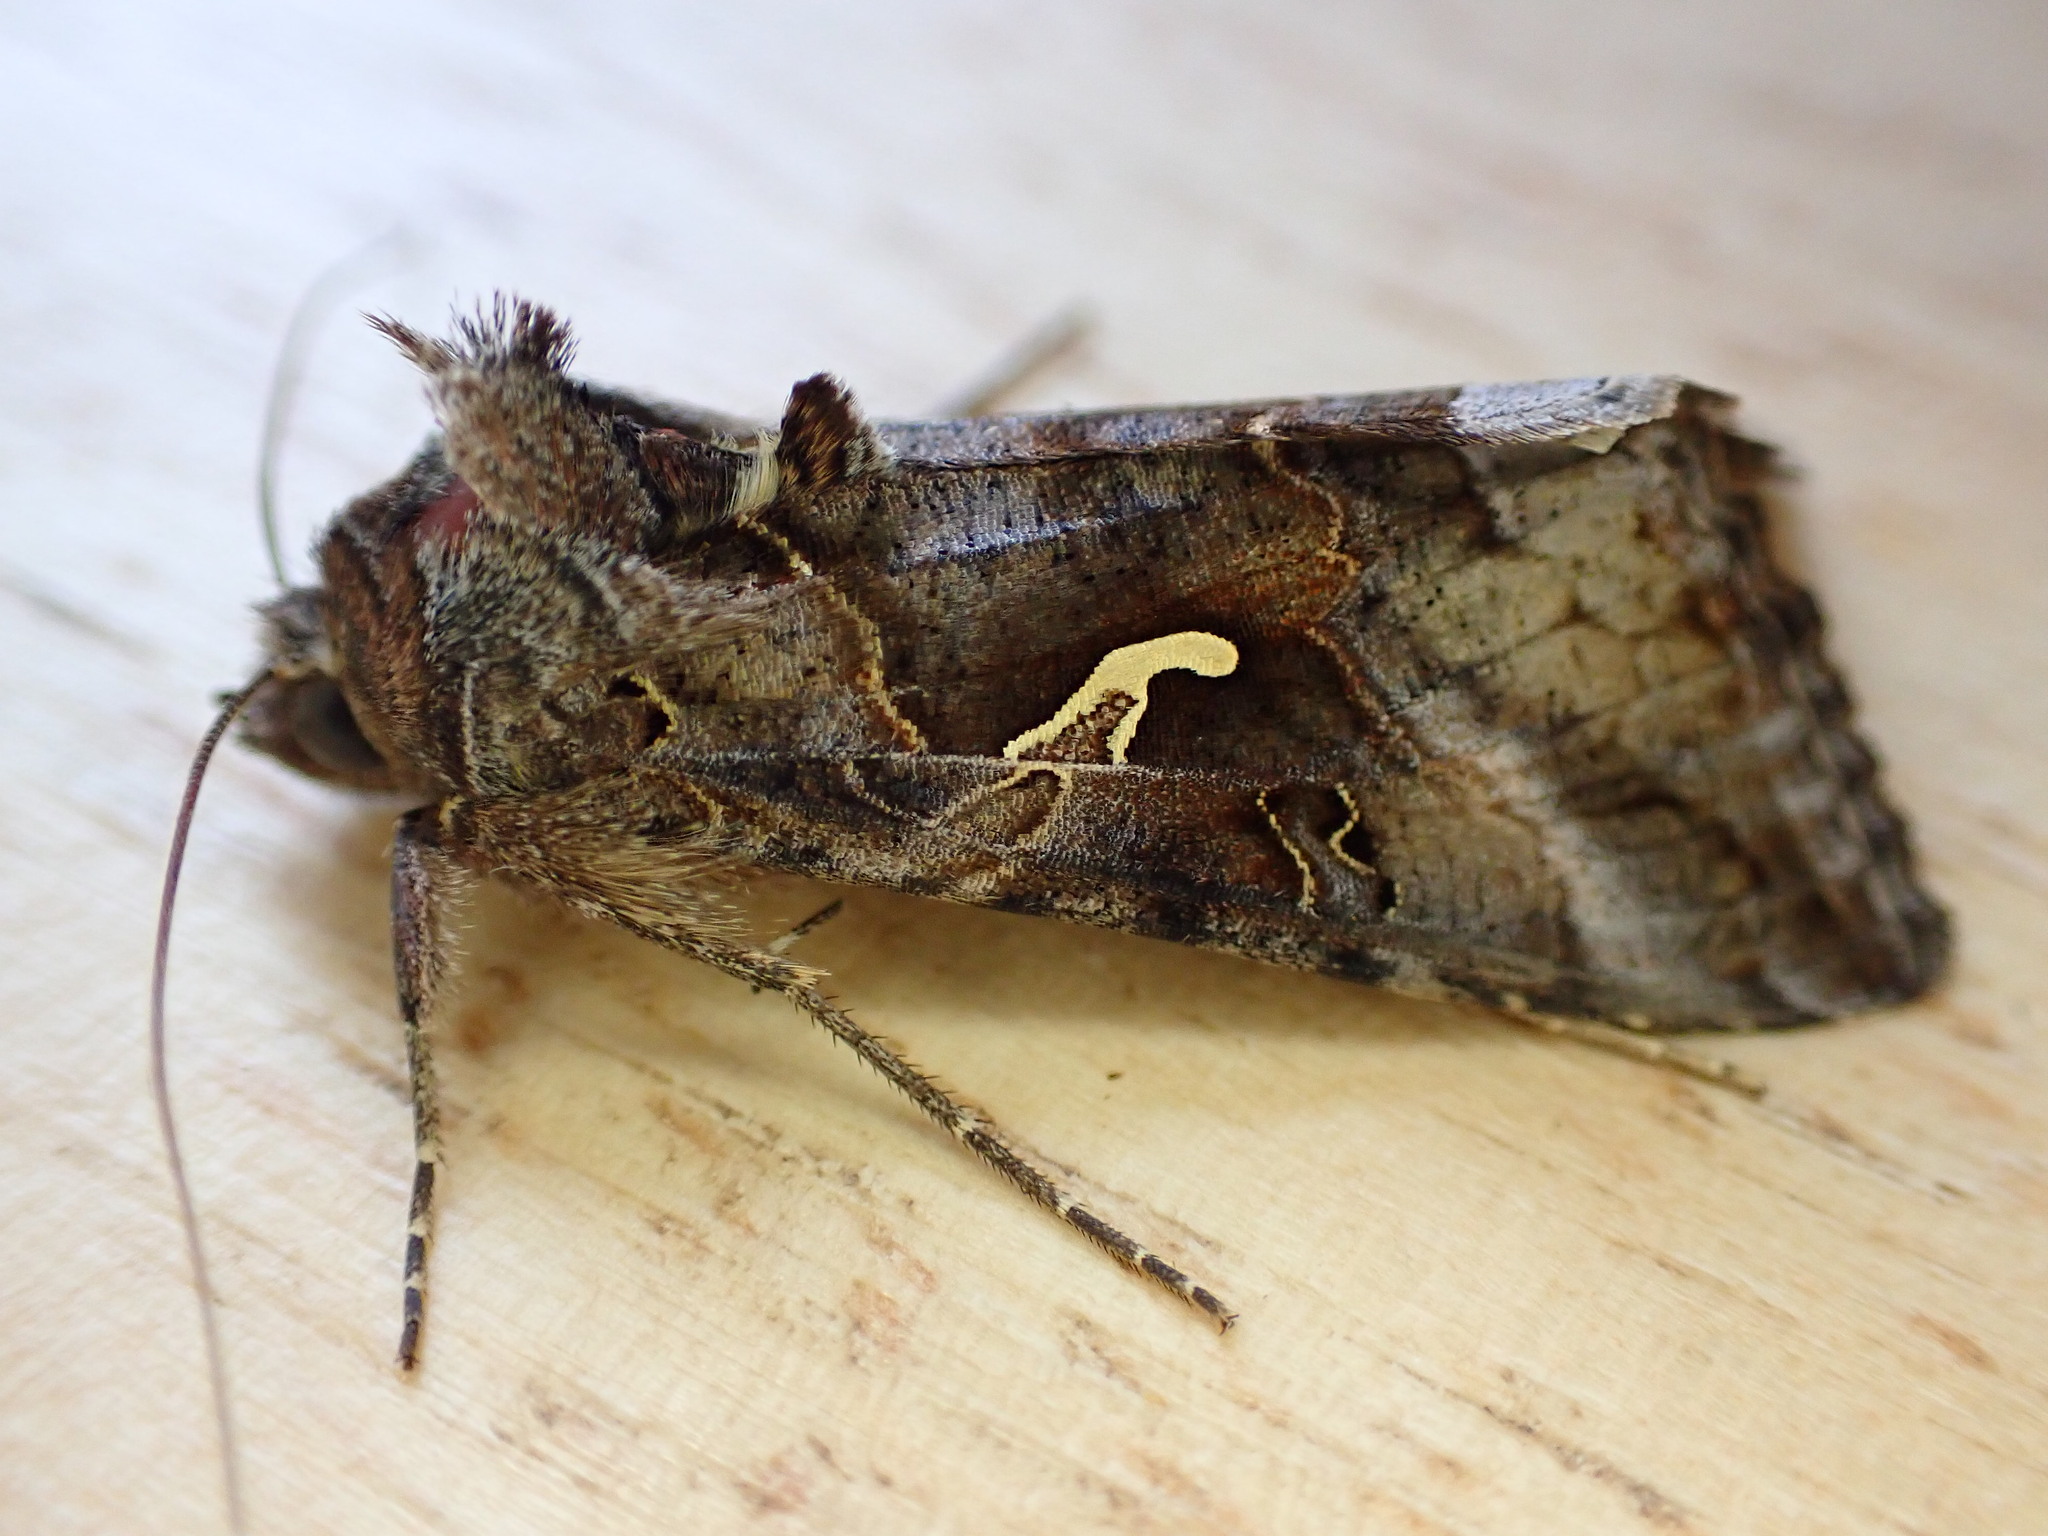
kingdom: Animalia
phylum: Arthropoda
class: Insecta
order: Lepidoptera
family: Noctuidae
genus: Autographa
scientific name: Autographa gamma
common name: Silver y
